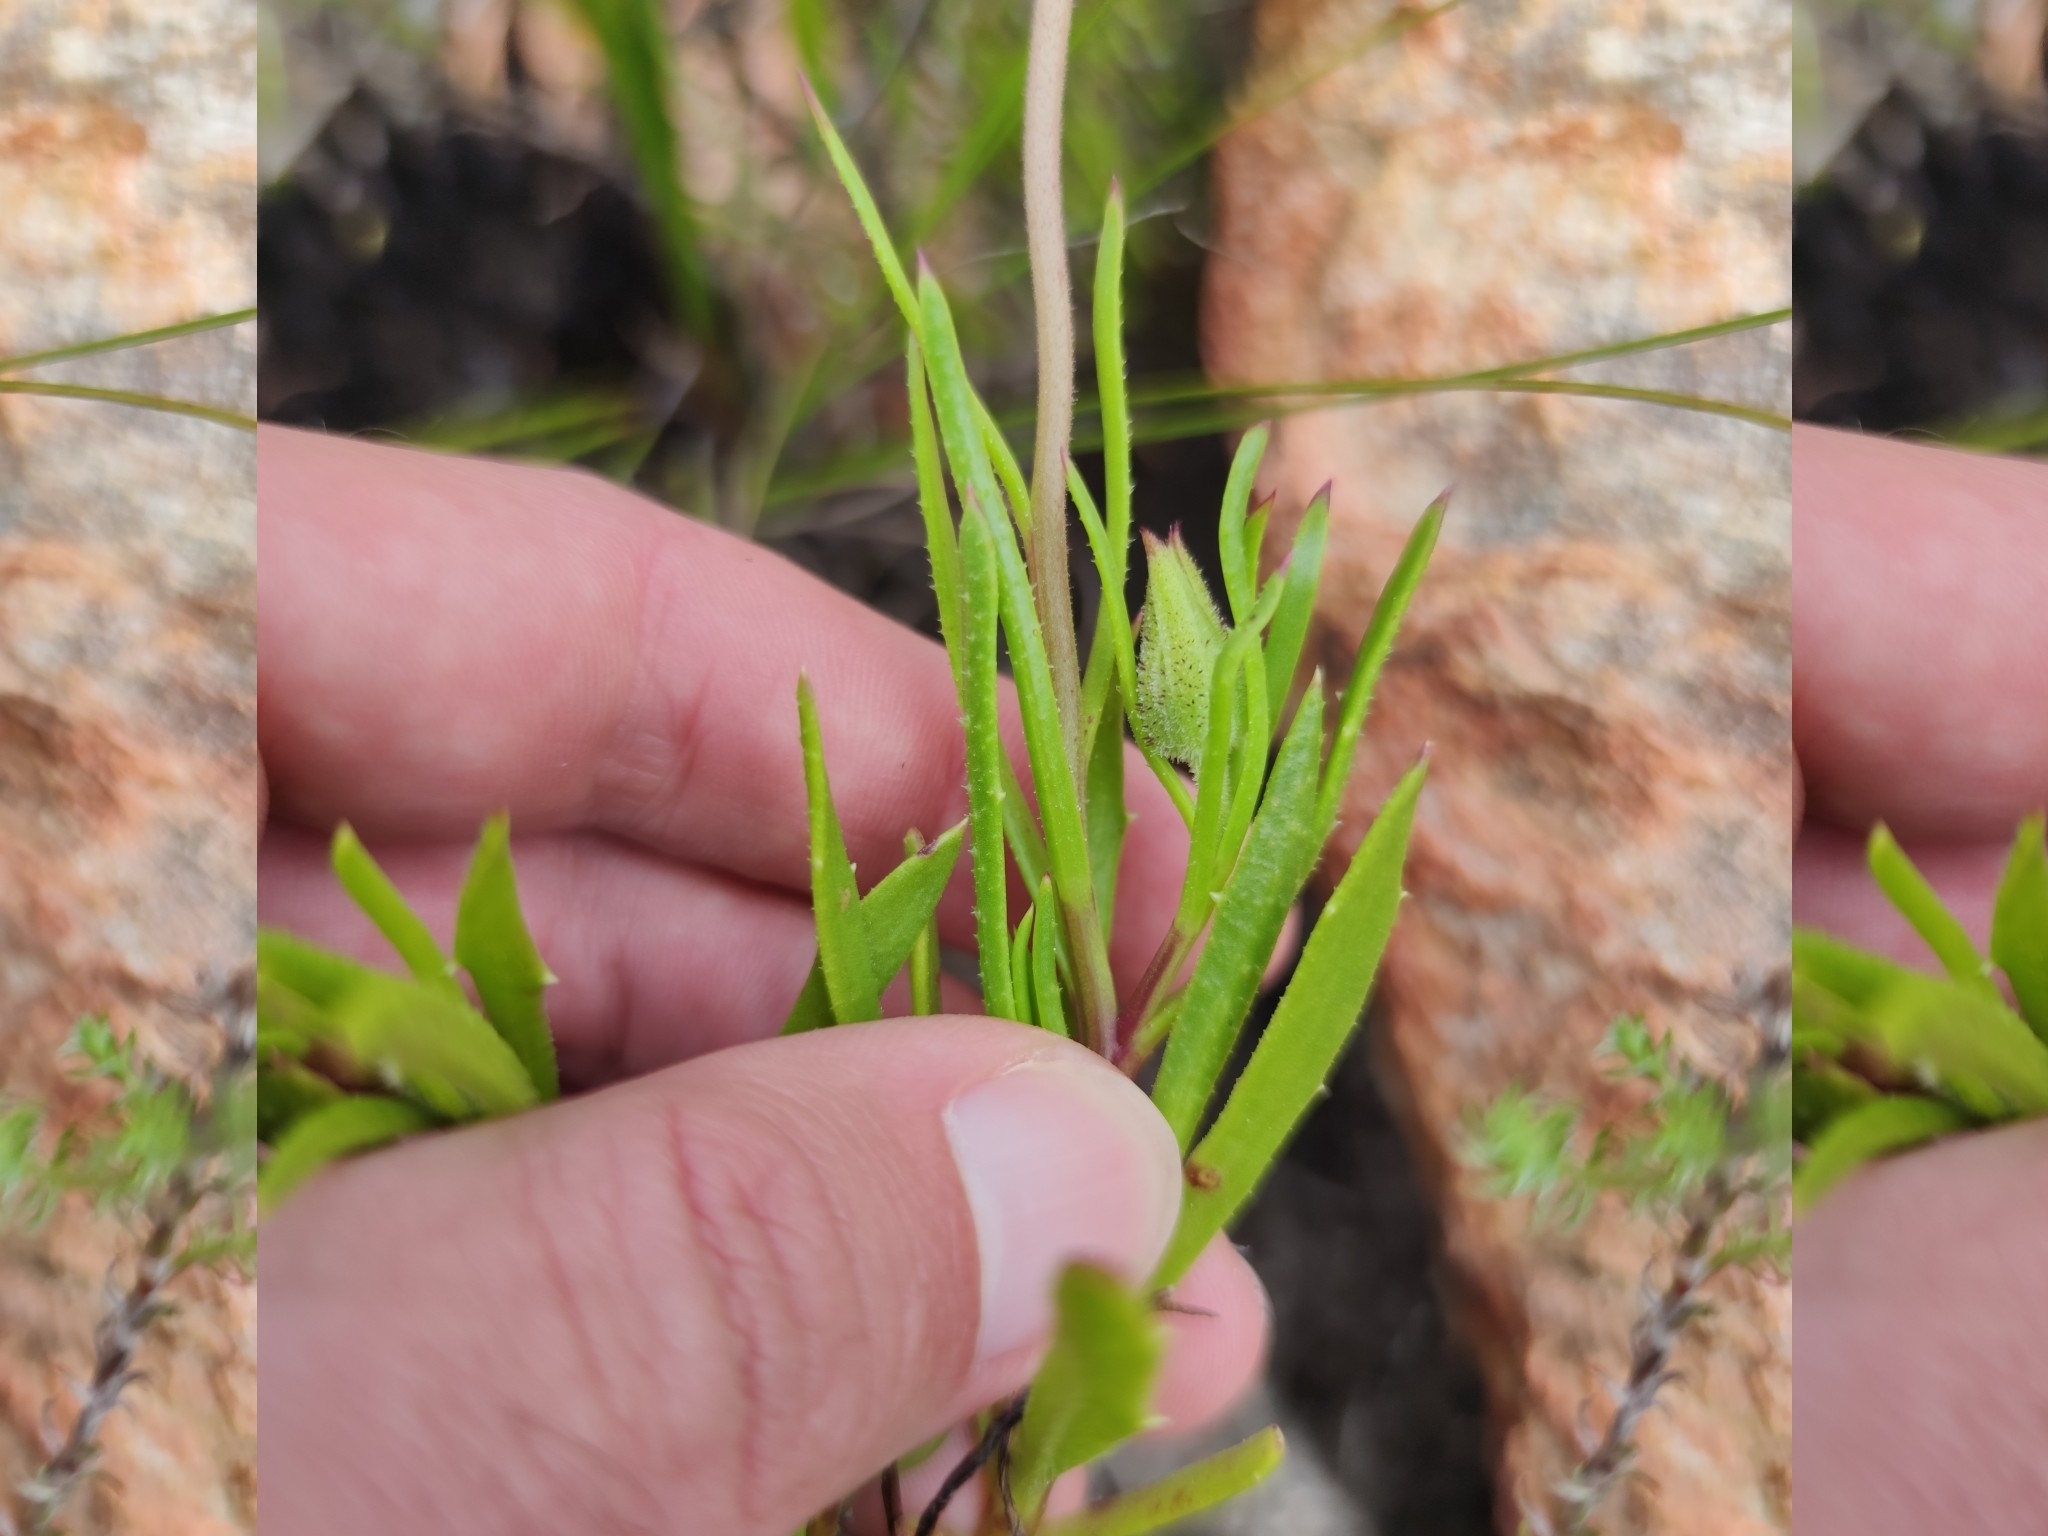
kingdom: Plantae
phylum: Tracheophyta
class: Magnoliopsida
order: Asterales
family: Asteraceae
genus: Dimorphotheca
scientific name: Dimorphotheca acutifolia
